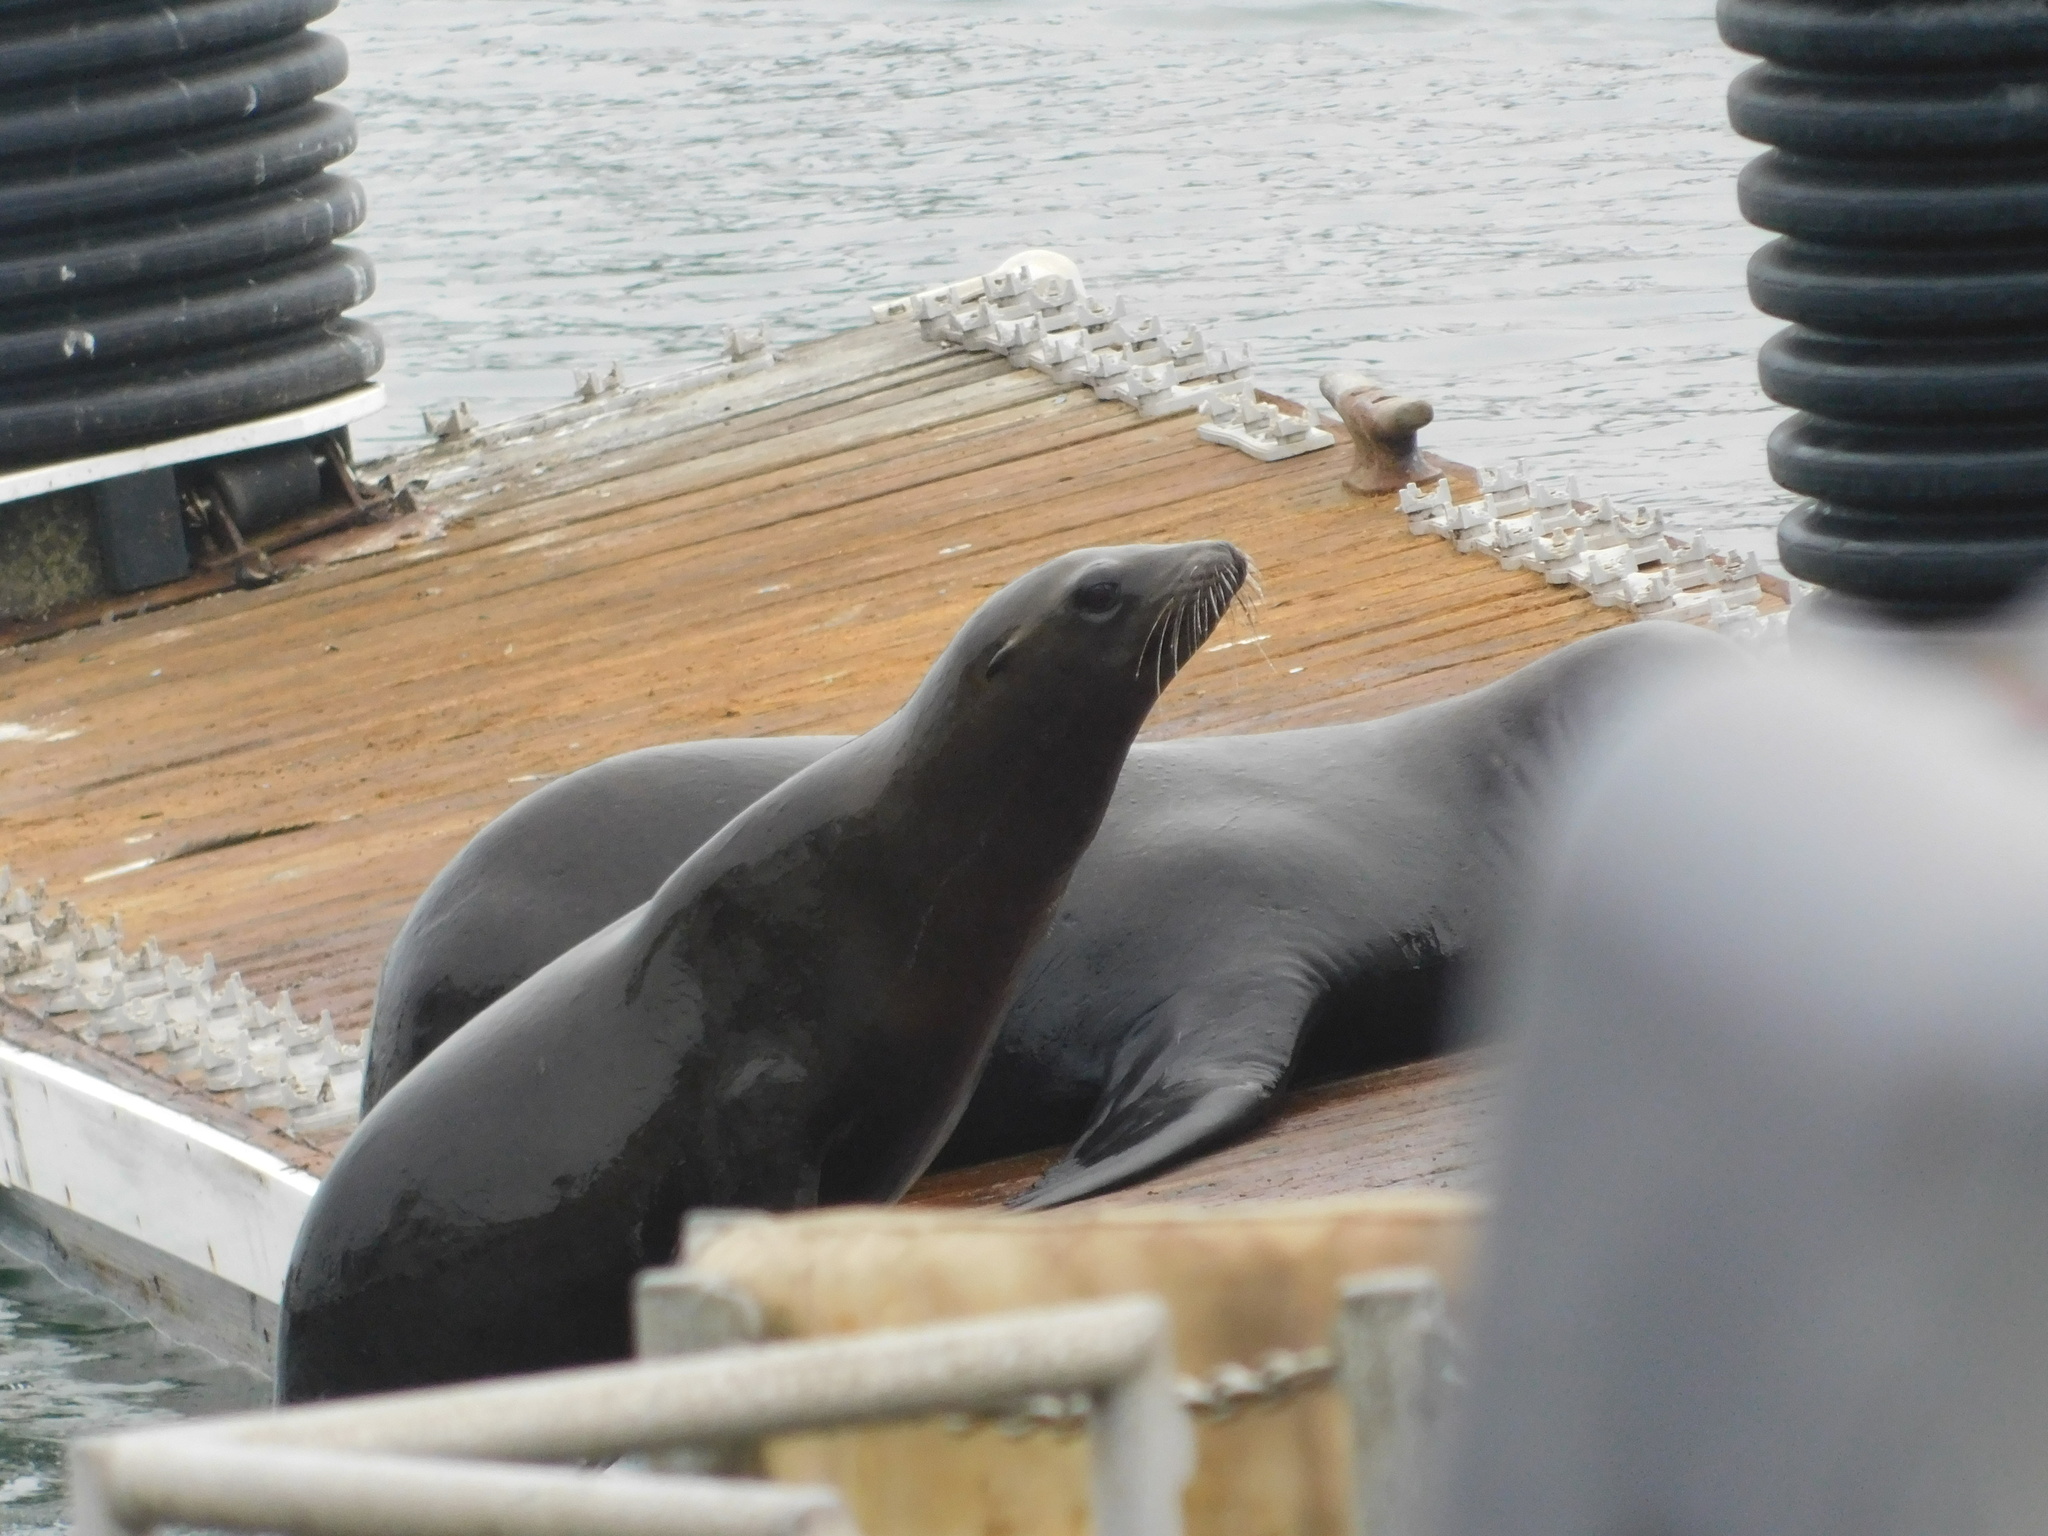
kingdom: Animalia
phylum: Chordata
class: Mammalia
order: Carnivora
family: Otariidae
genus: Zalophus
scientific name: Zalophus californianus
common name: California sea lion
